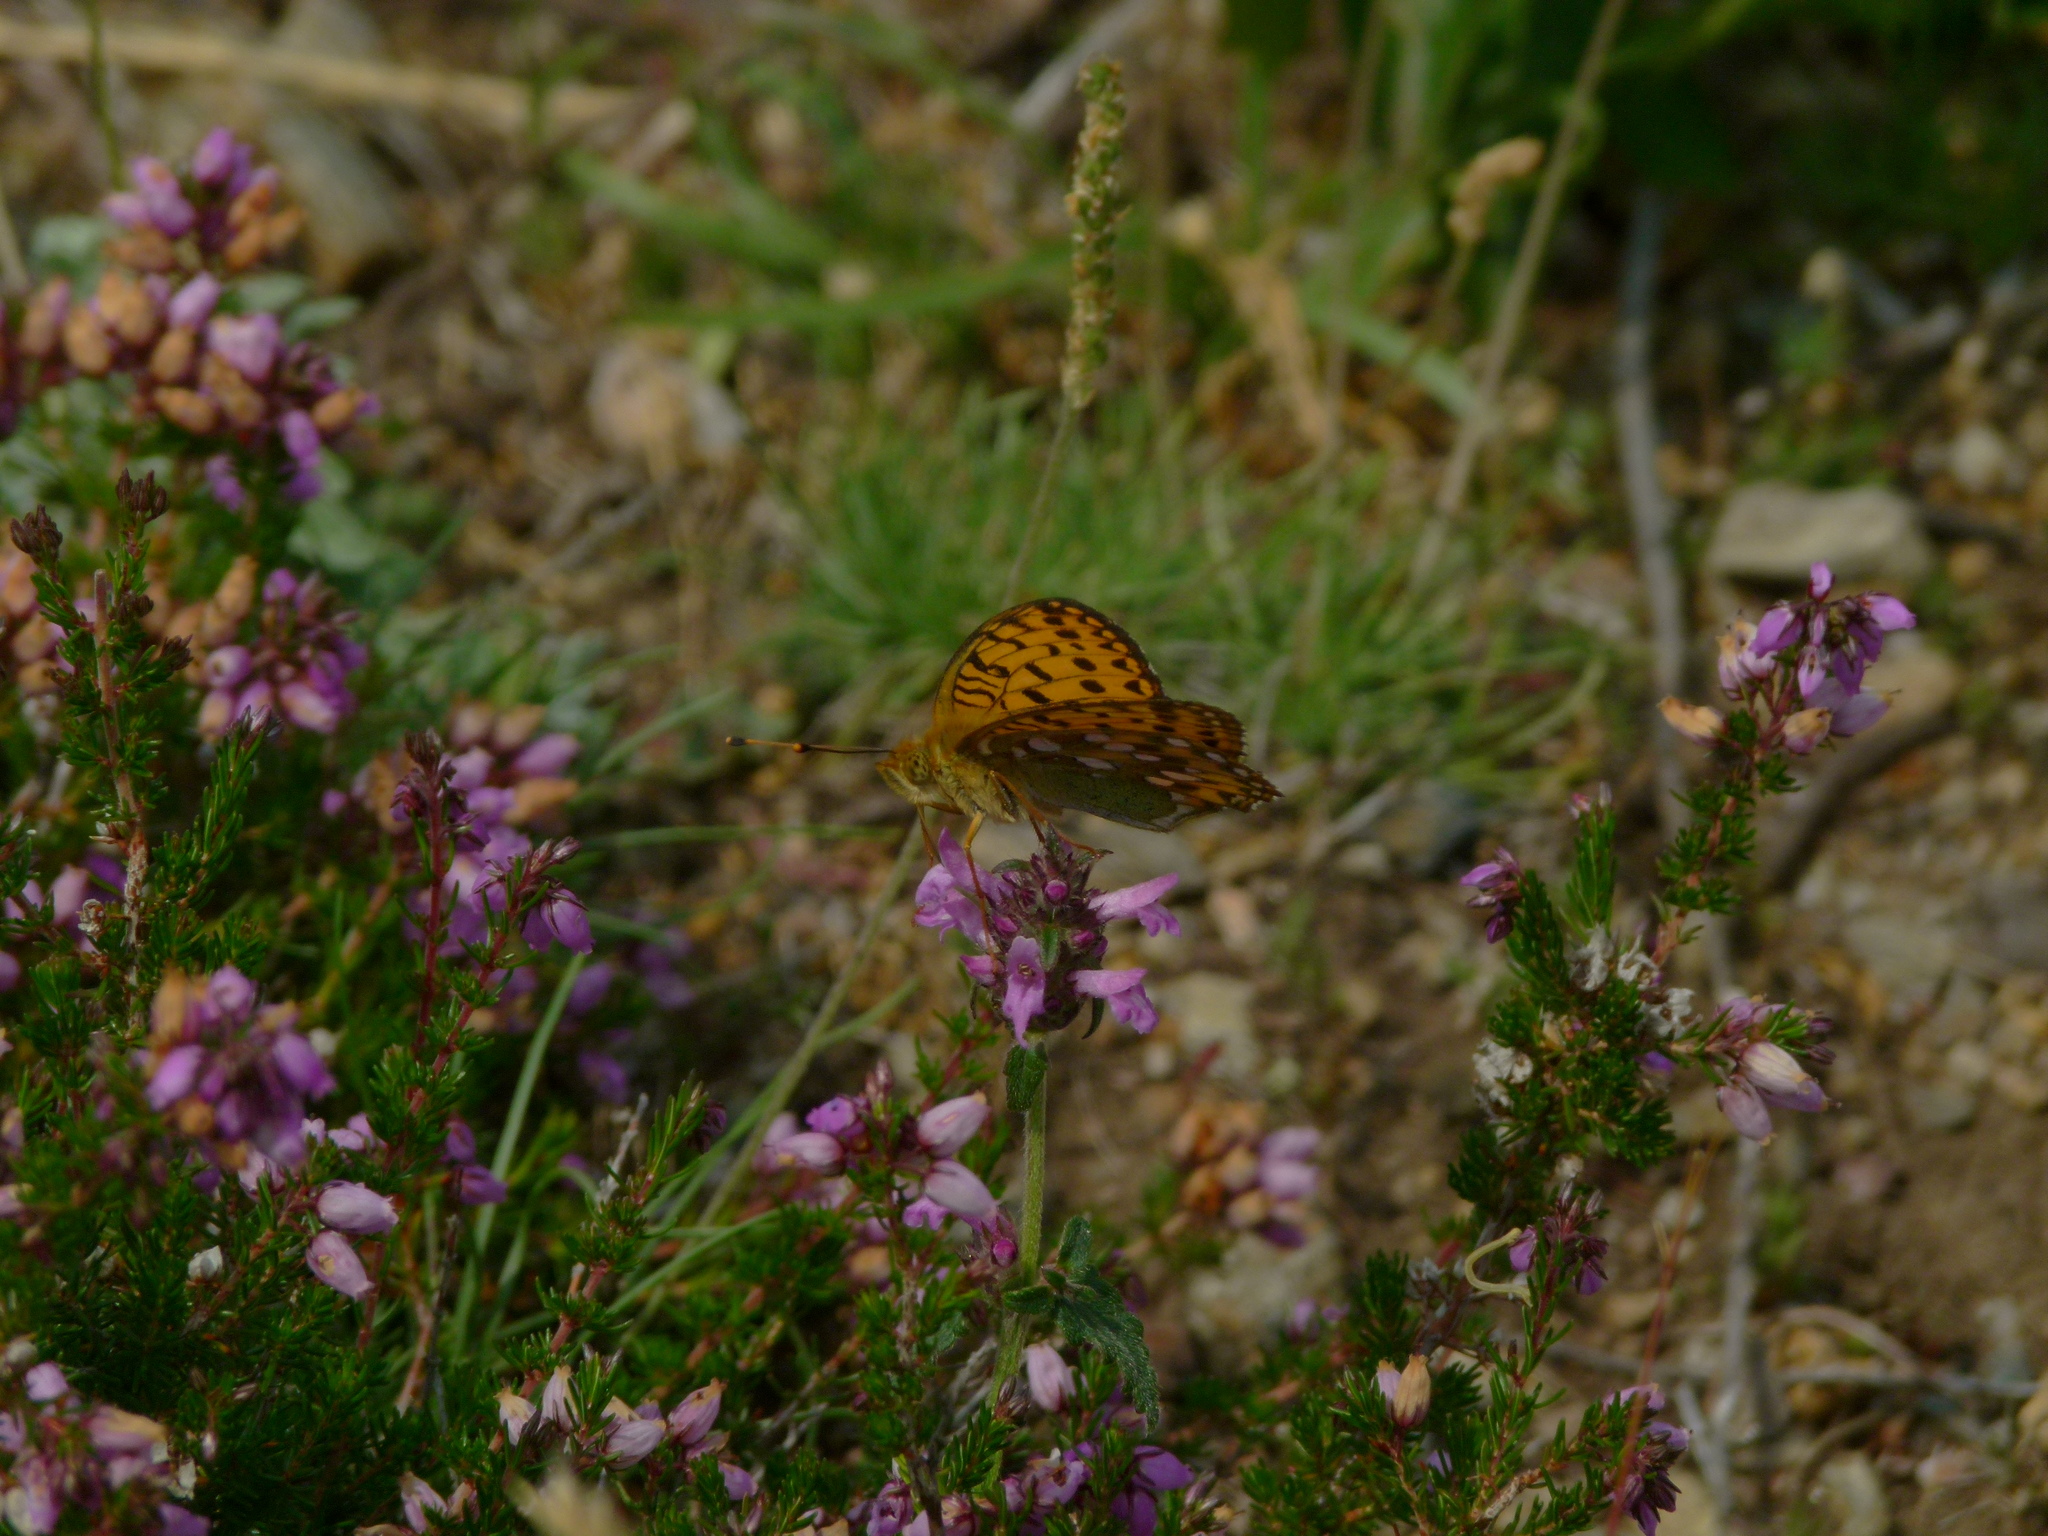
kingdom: Animalia
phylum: Arthropoda
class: Insecta
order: Lepidoptera
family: Nymphalidae
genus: Speyeria
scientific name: Speyeria aglaja
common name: Dark green fritillary
